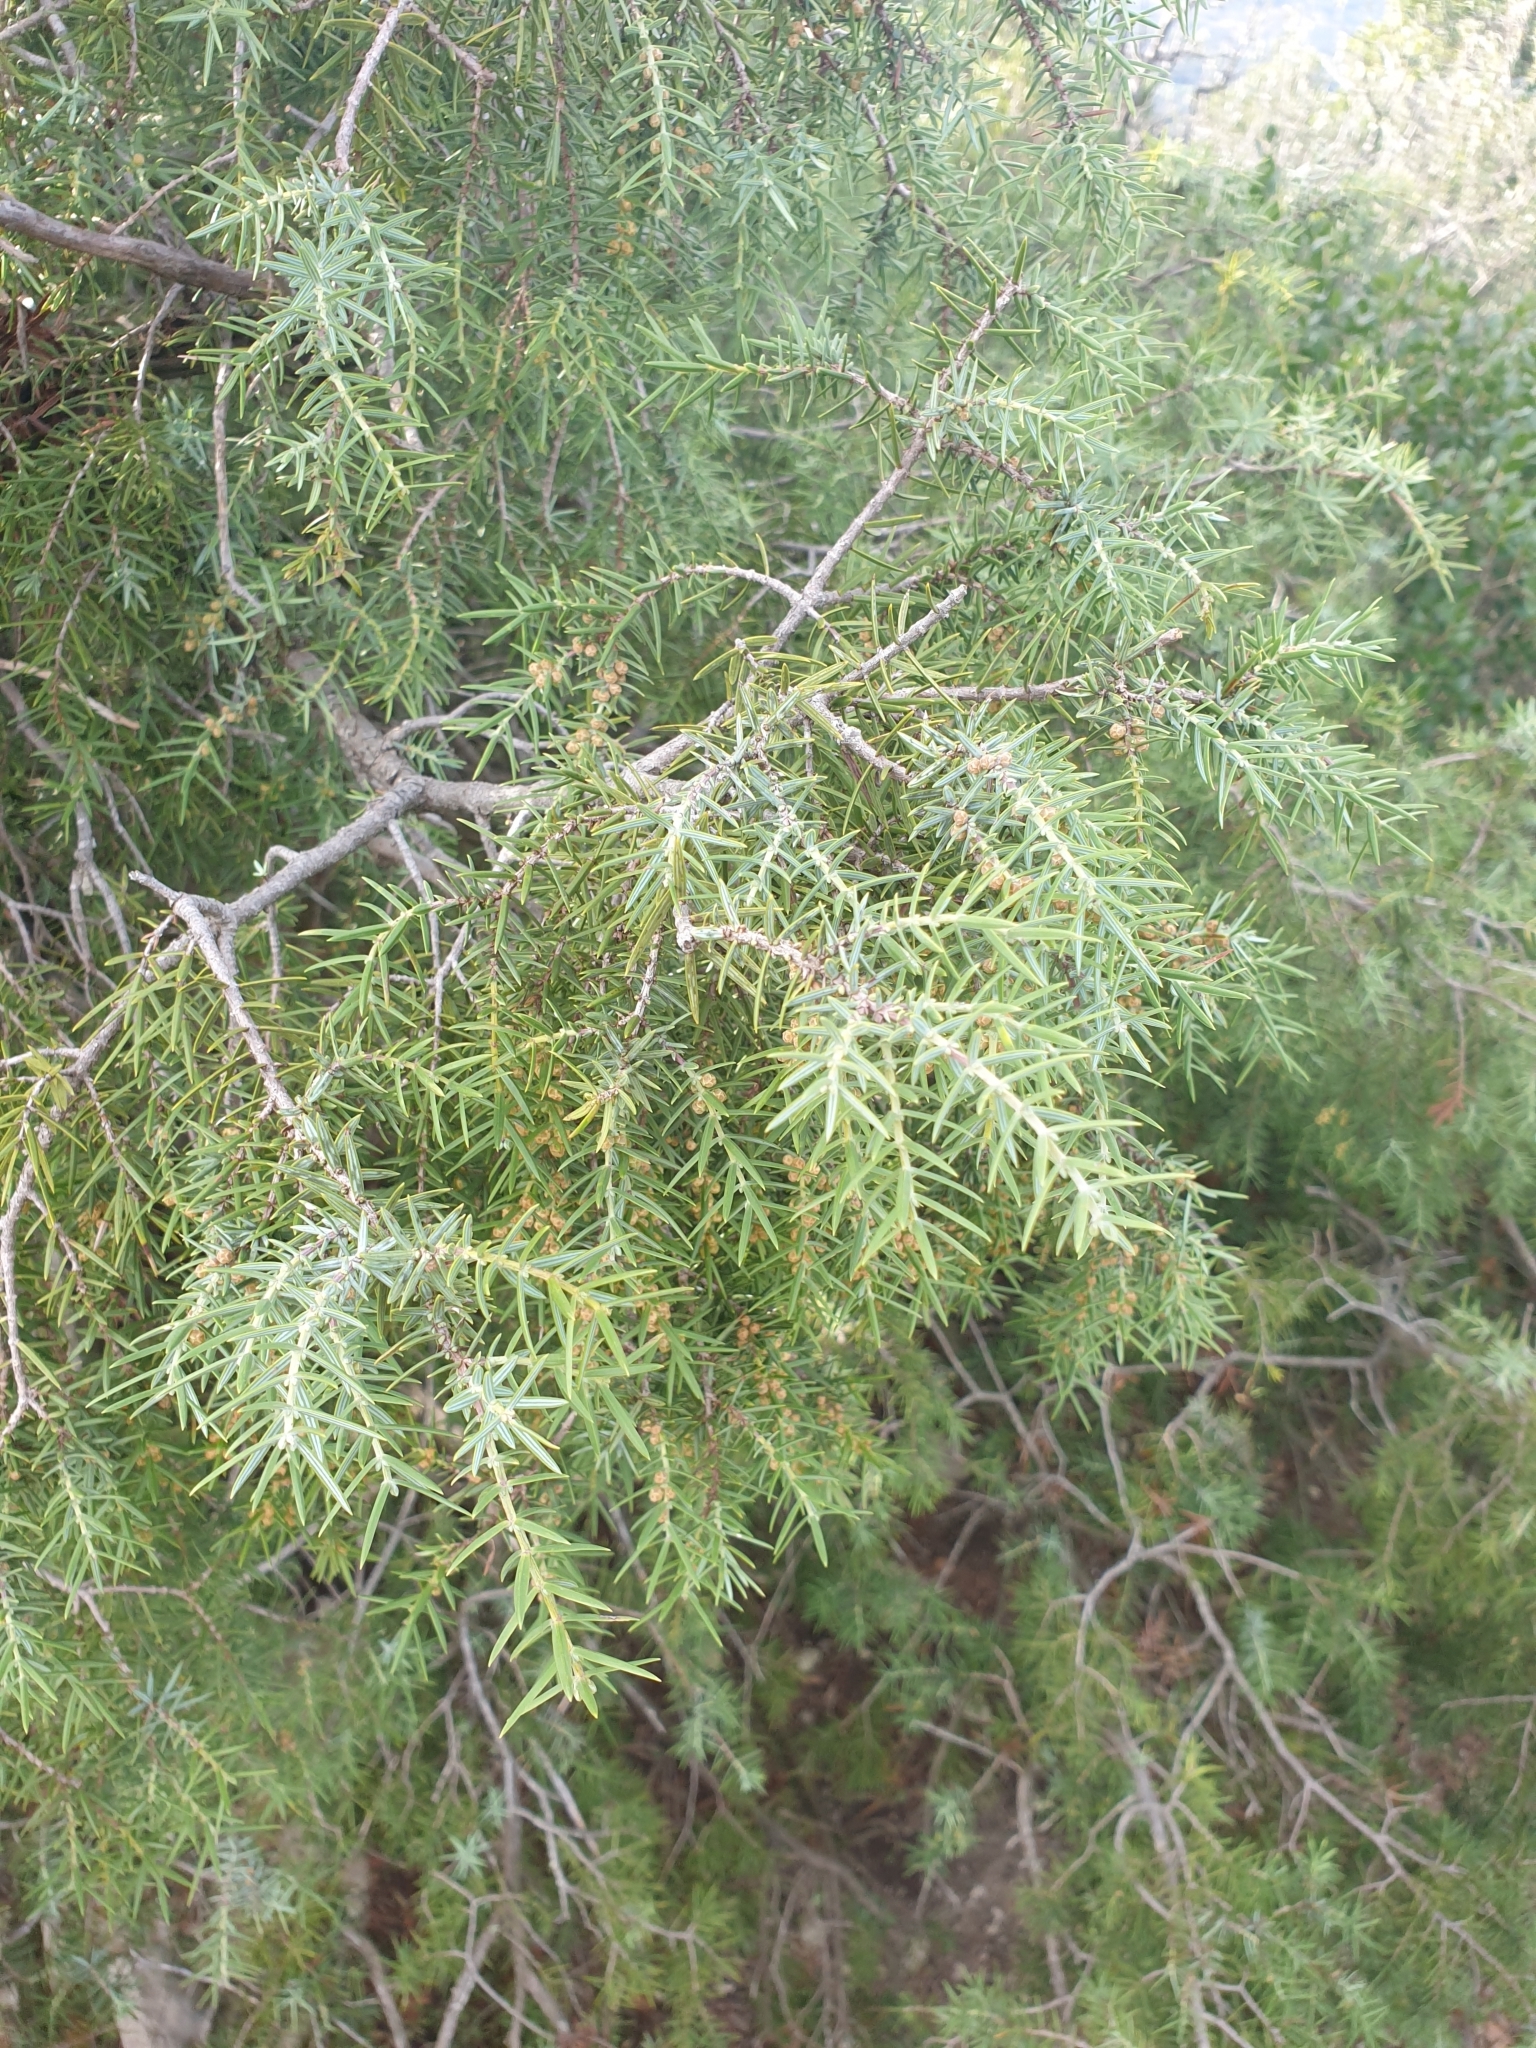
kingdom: Plantae
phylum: Tracheophyta
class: Pinopsida
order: Pinales
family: Cupressaceae
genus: Juniperus
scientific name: Juniperus oxycedrus
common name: Prickly juniper
